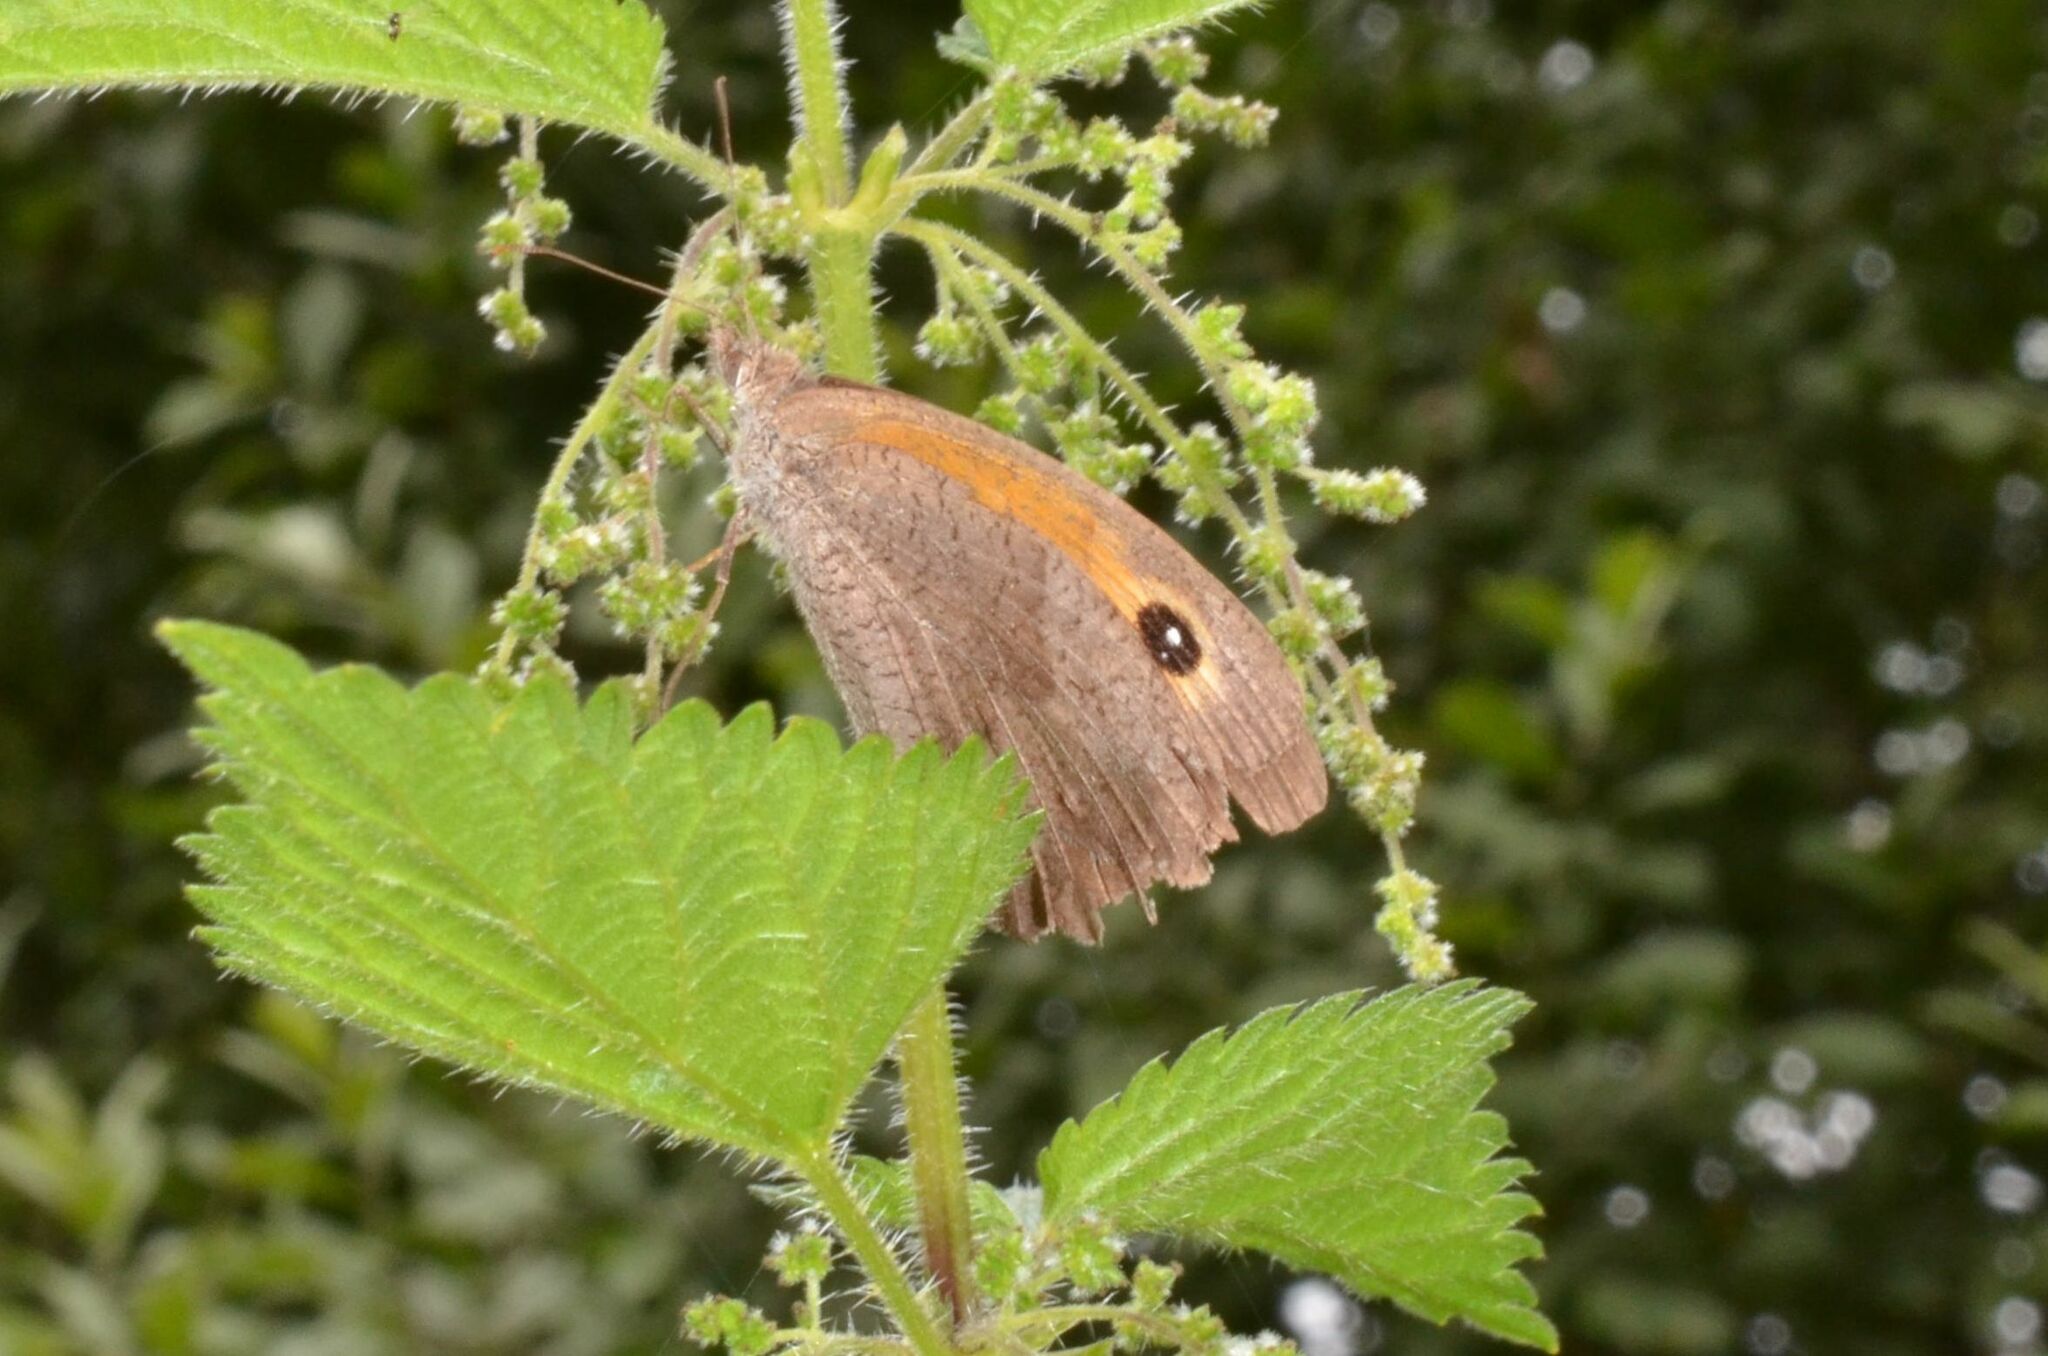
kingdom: Animalia
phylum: Arthropoda
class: Insecta
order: Lepidoptera
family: Nymphalidae
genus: Maniola
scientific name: Maniola jurtina
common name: Meadow brown
